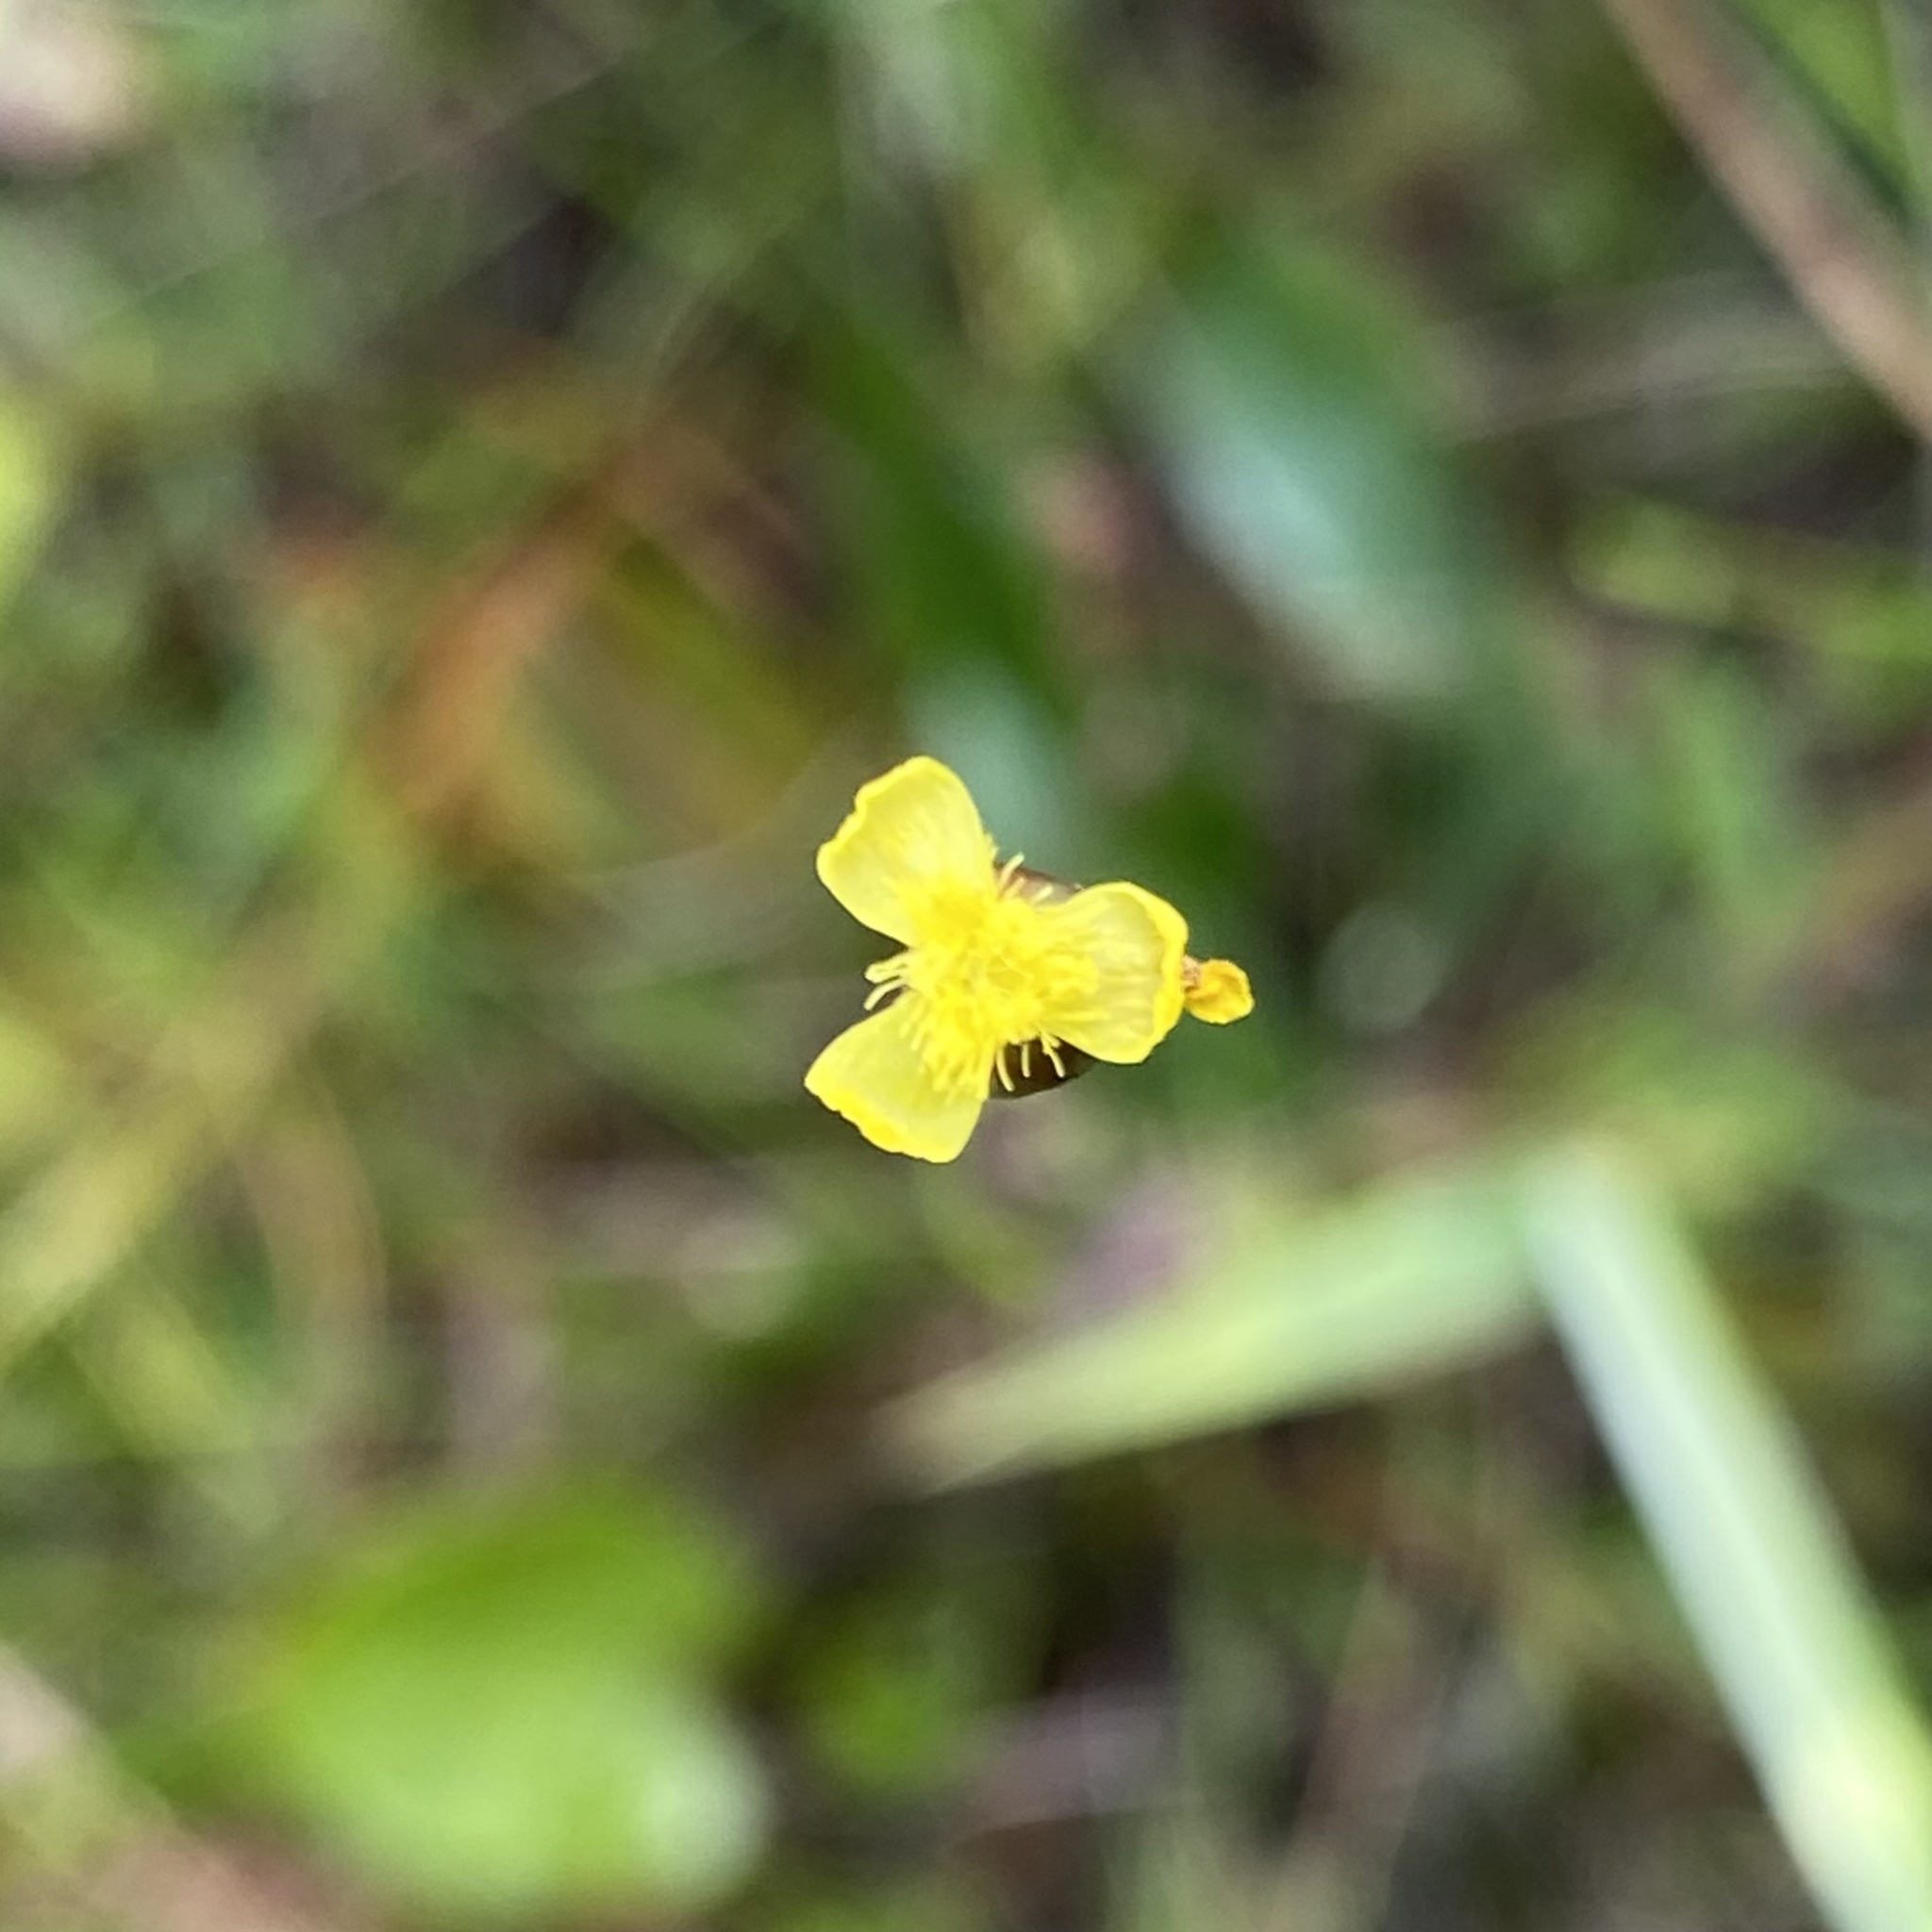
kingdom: Plantae
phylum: Tracheophyta
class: Liliopsida
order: Poales
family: Xyridaceae
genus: Xyris
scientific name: Xyris jupicai
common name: Richard's yelloweyed grass
